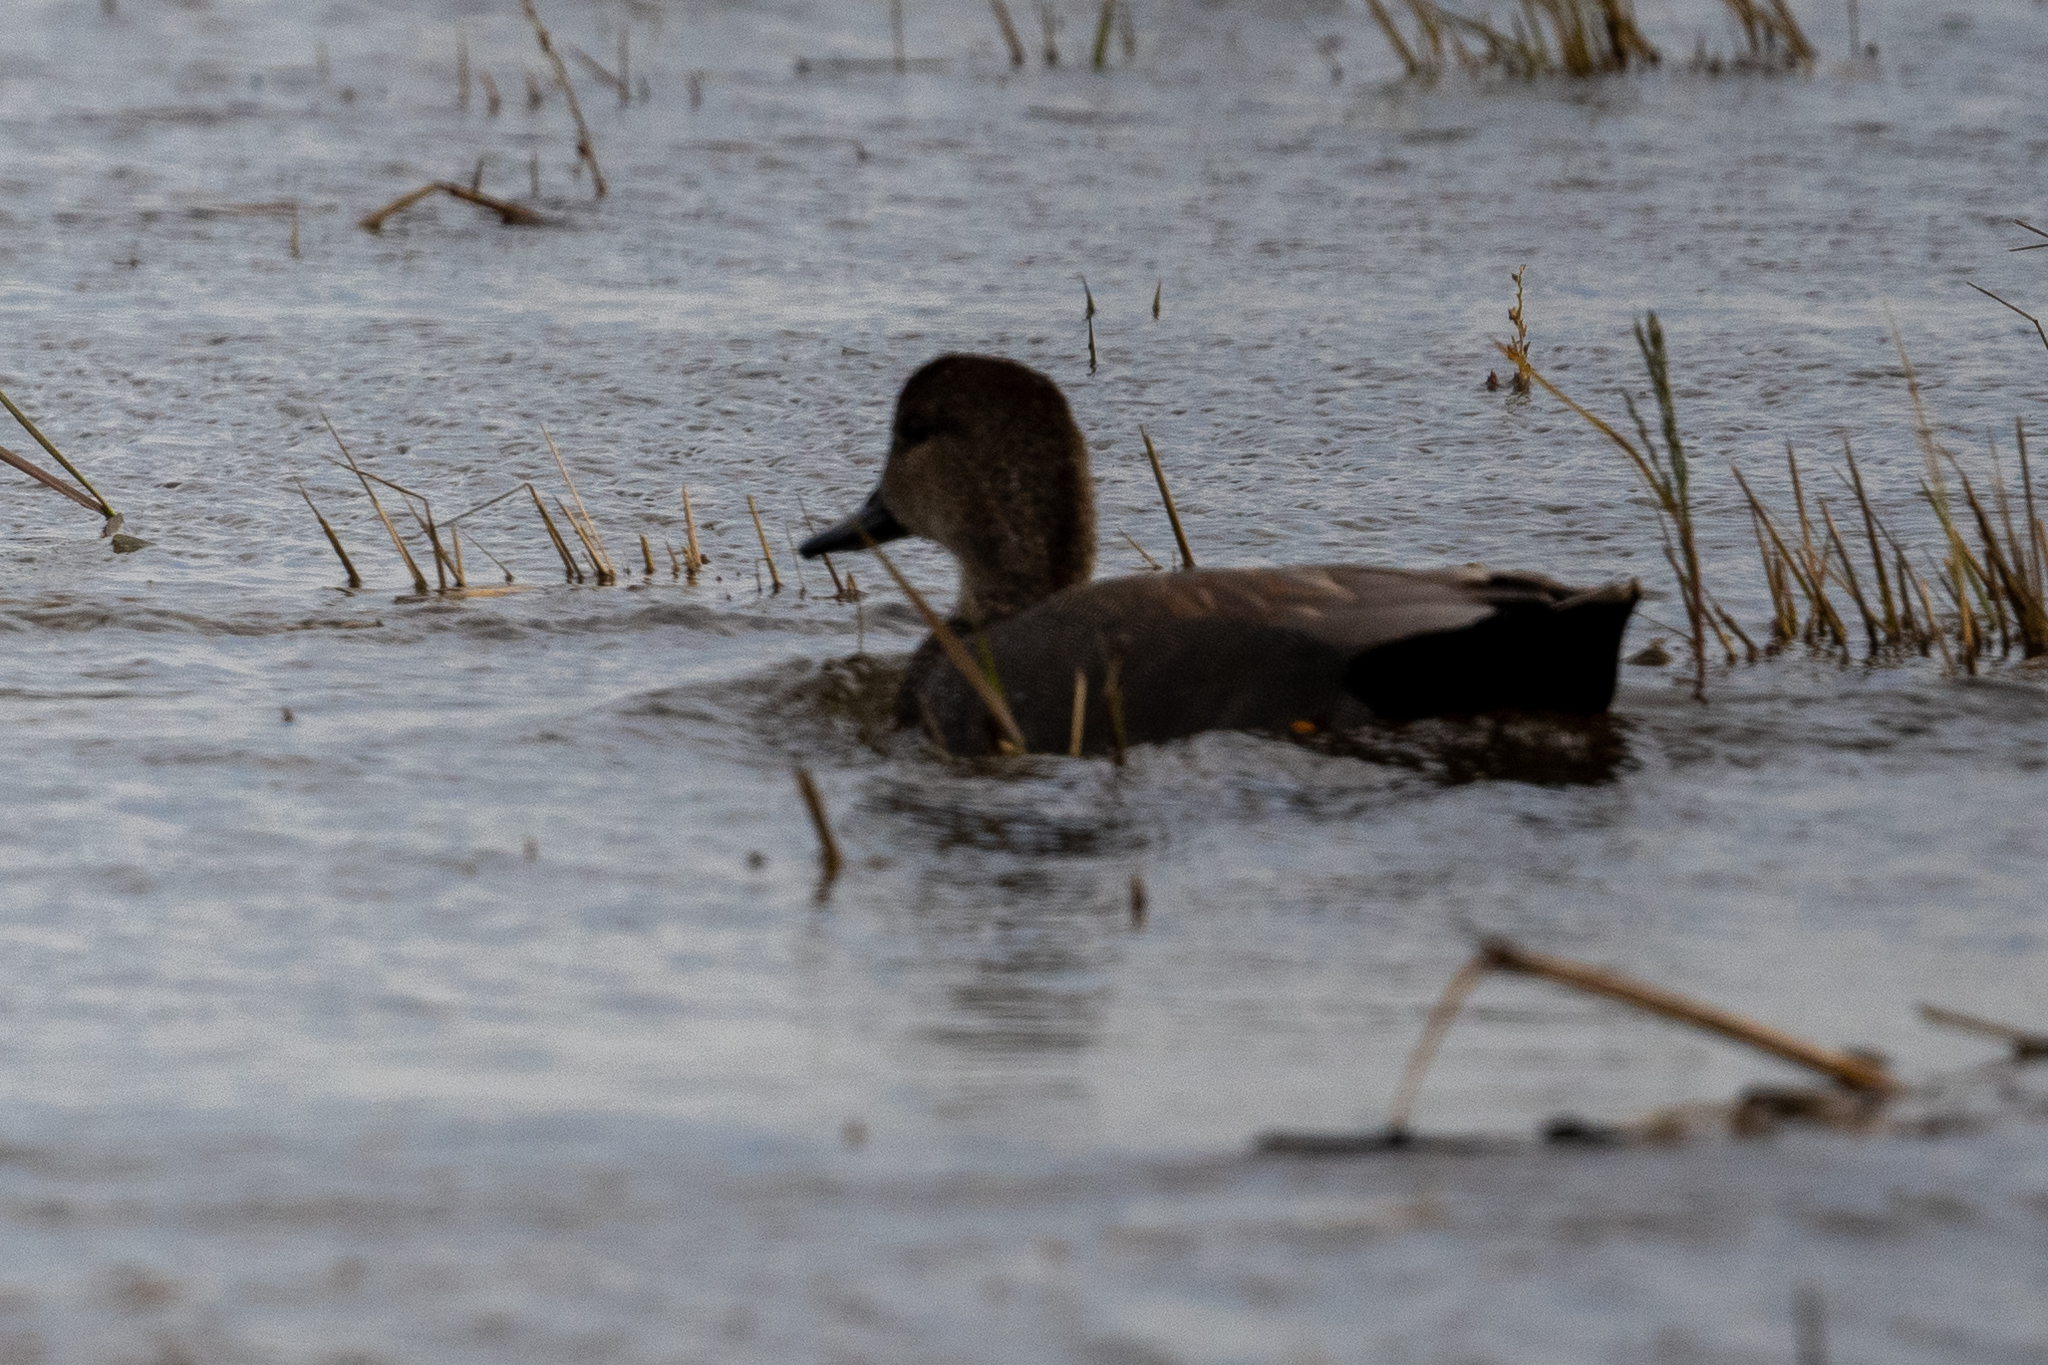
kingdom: Animalia
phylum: Chordata
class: Aves
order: Anseriformes
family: Anatidae
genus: Mareca
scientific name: Mareca strepera
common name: Gadwall
